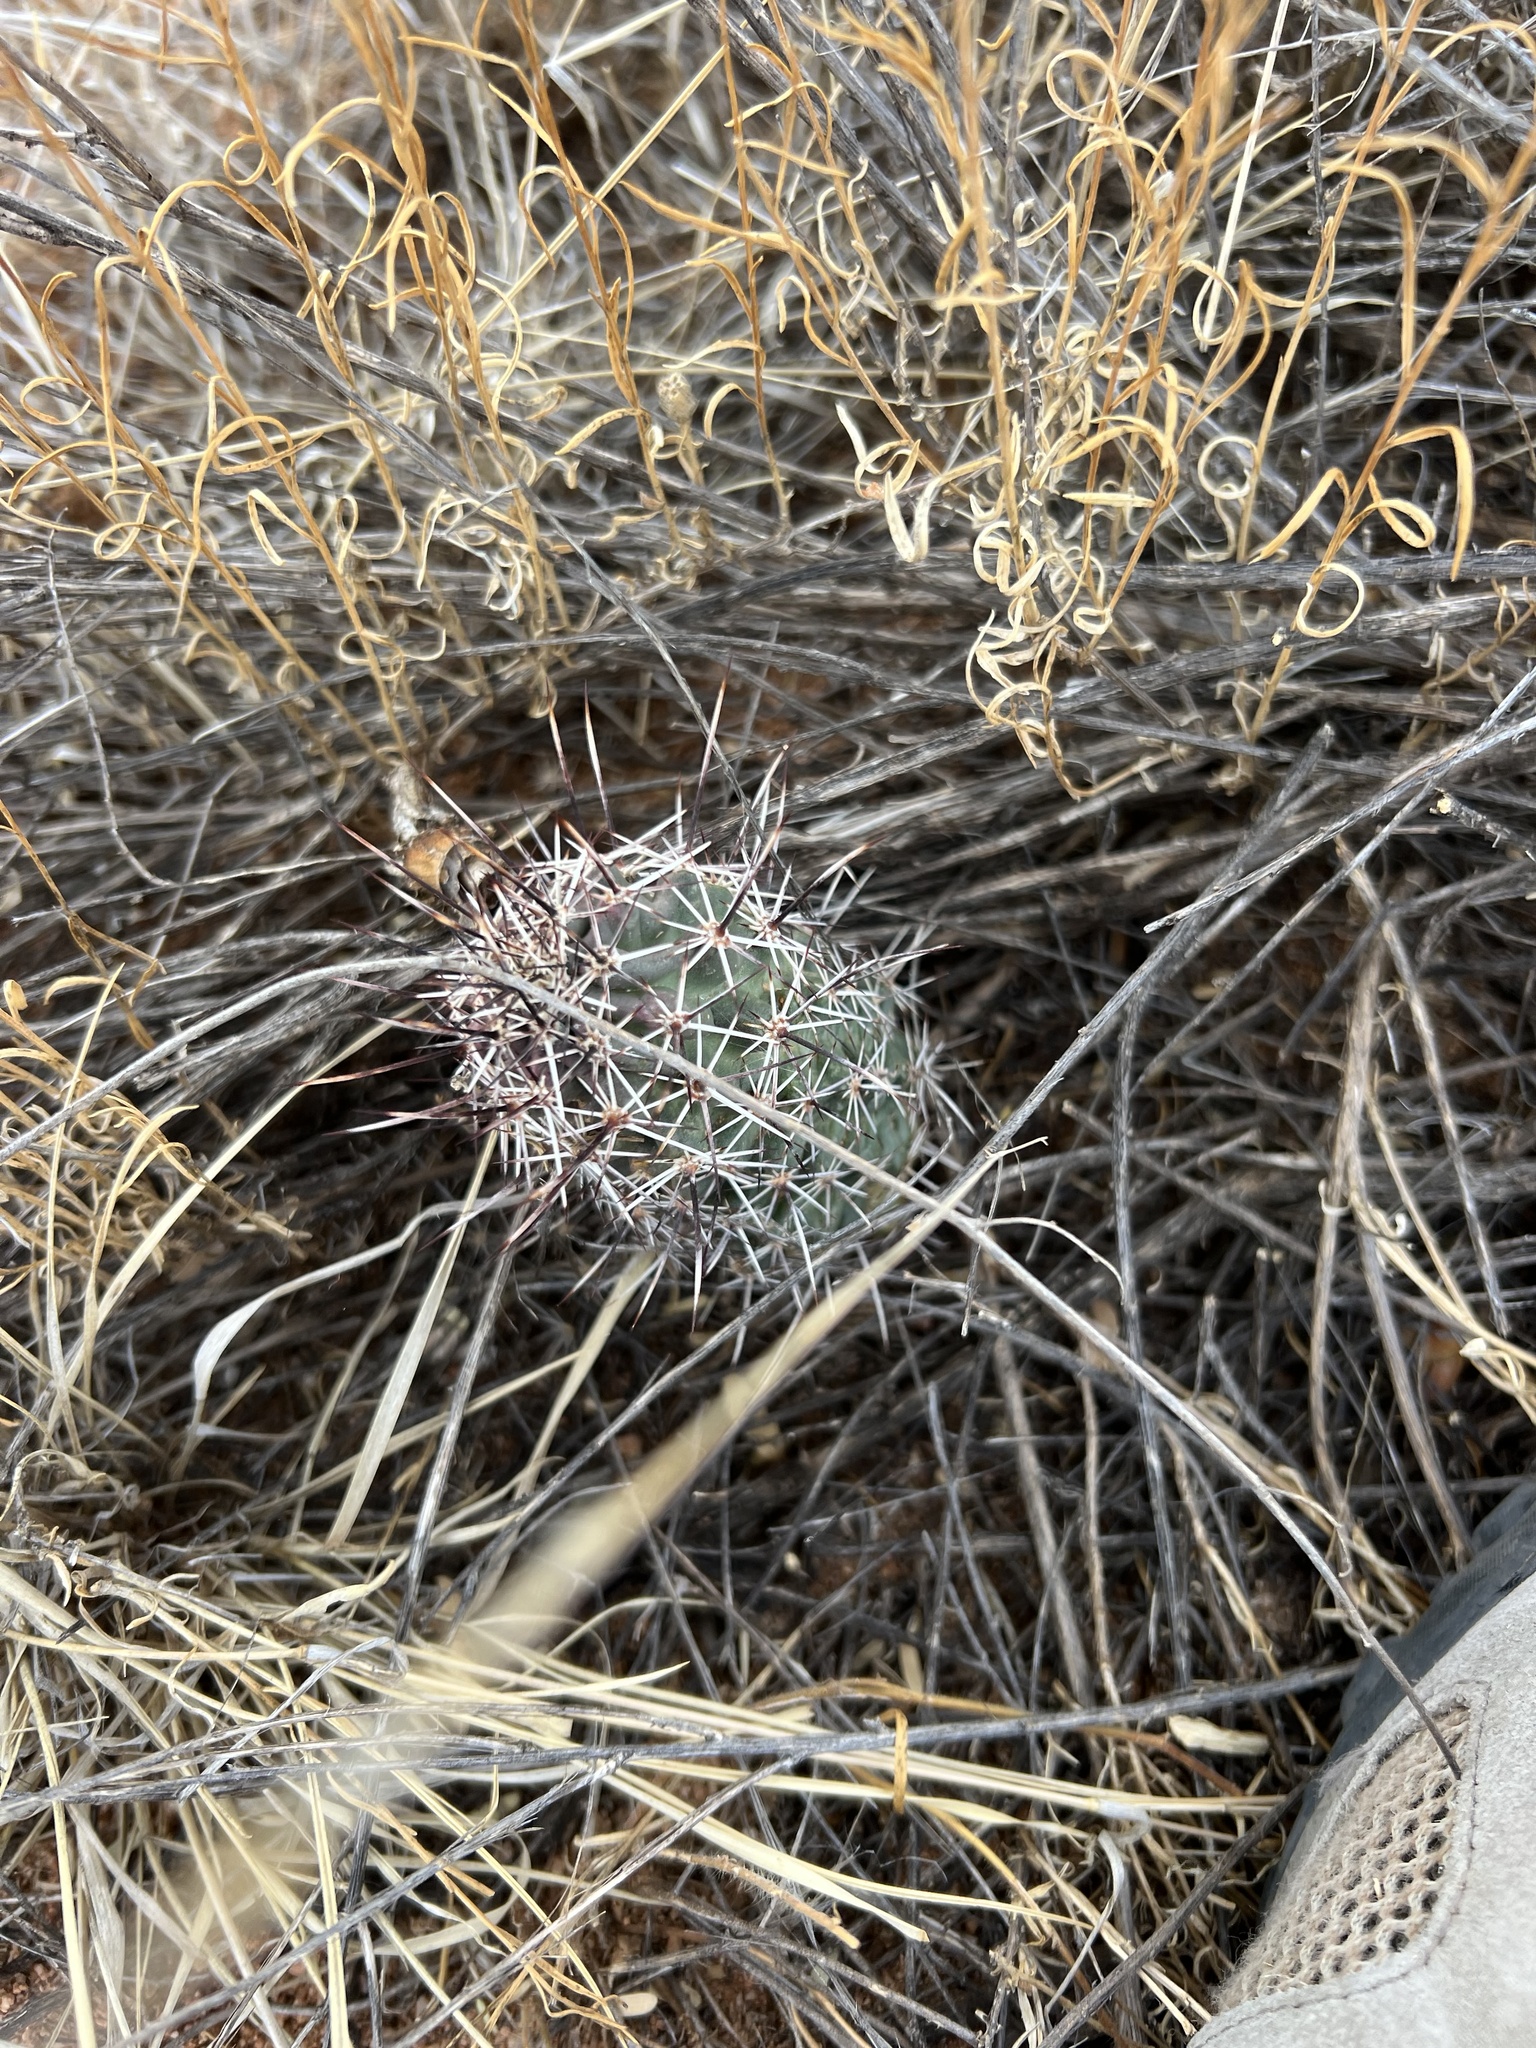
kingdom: Plantae
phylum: Tracheophyta
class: Magnoliopsida
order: Caryophyllales
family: Cactaceae
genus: Echinocereus
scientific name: Echinocereus fasciculatus
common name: Bundle hedgehog
